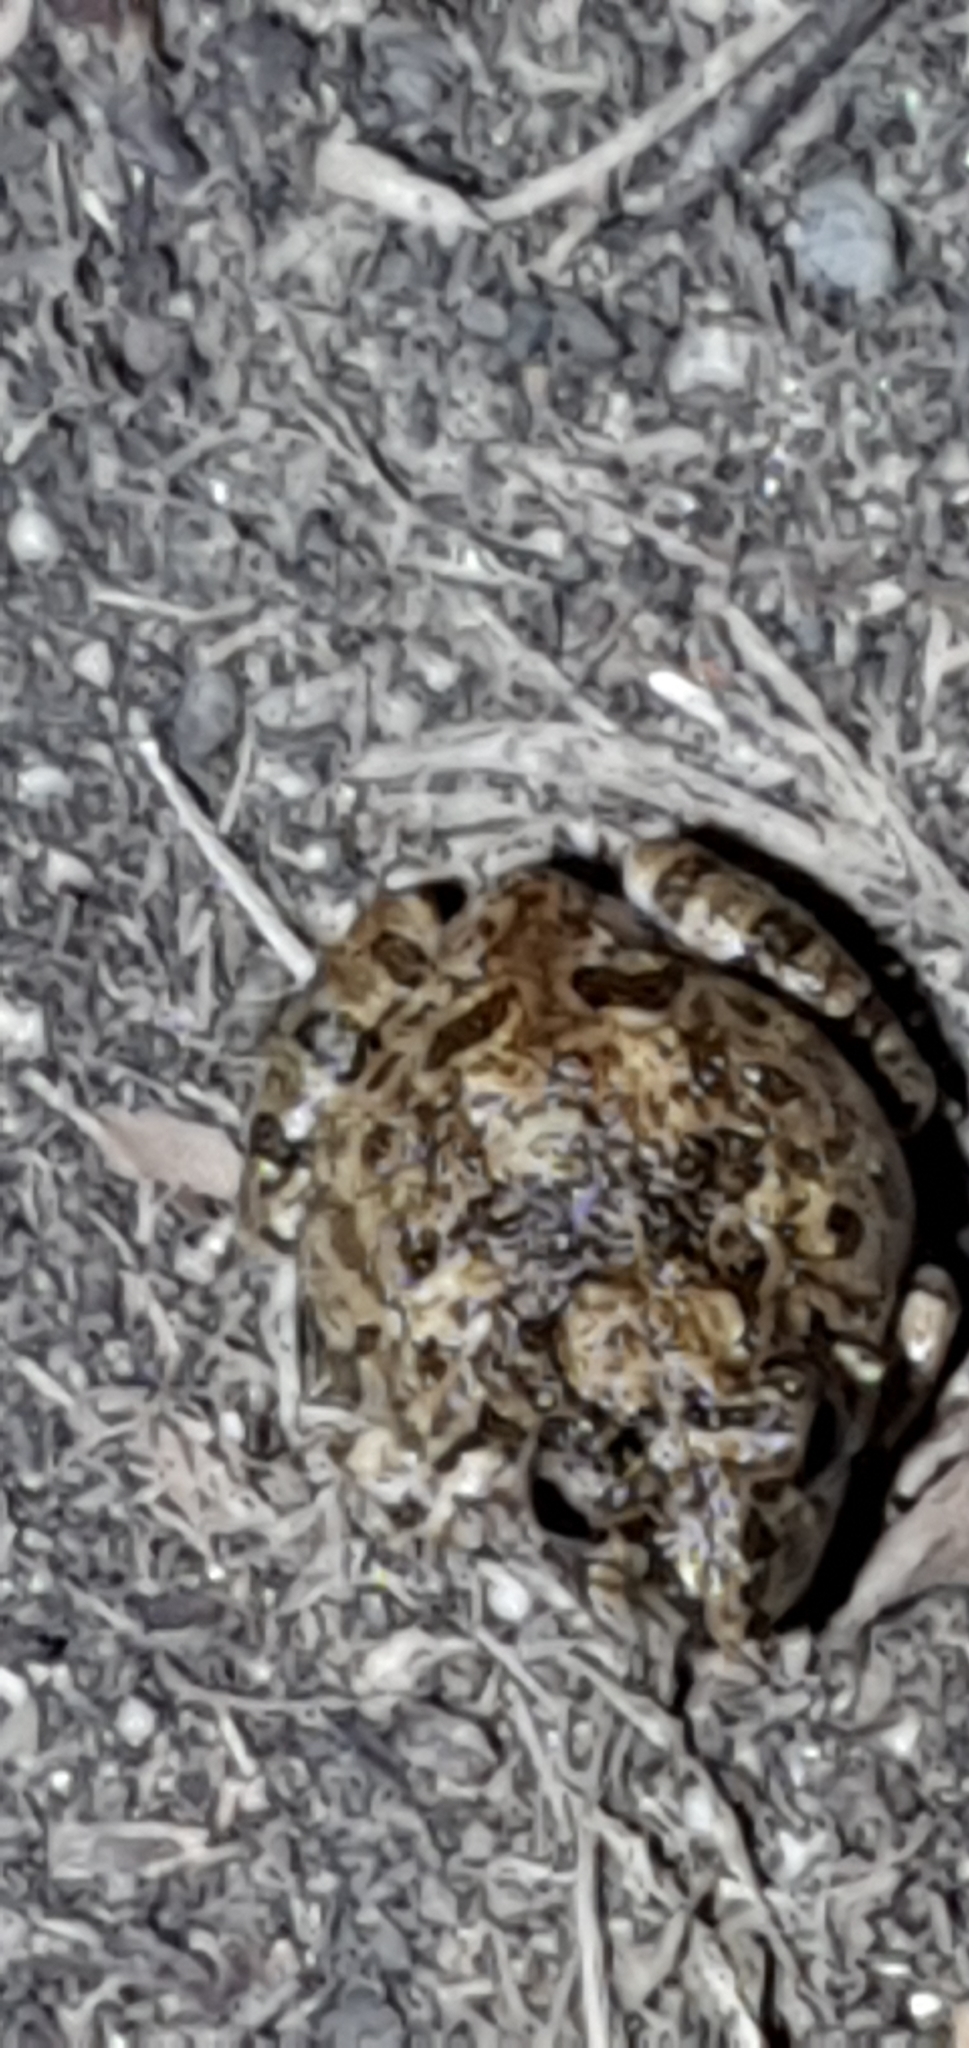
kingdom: Animalia
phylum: Chordata
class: Amphibia
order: Anura
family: Limnodynastidae
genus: Platyplectrum
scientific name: Platyplectrum ornatum
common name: Ornate burrowing frog
